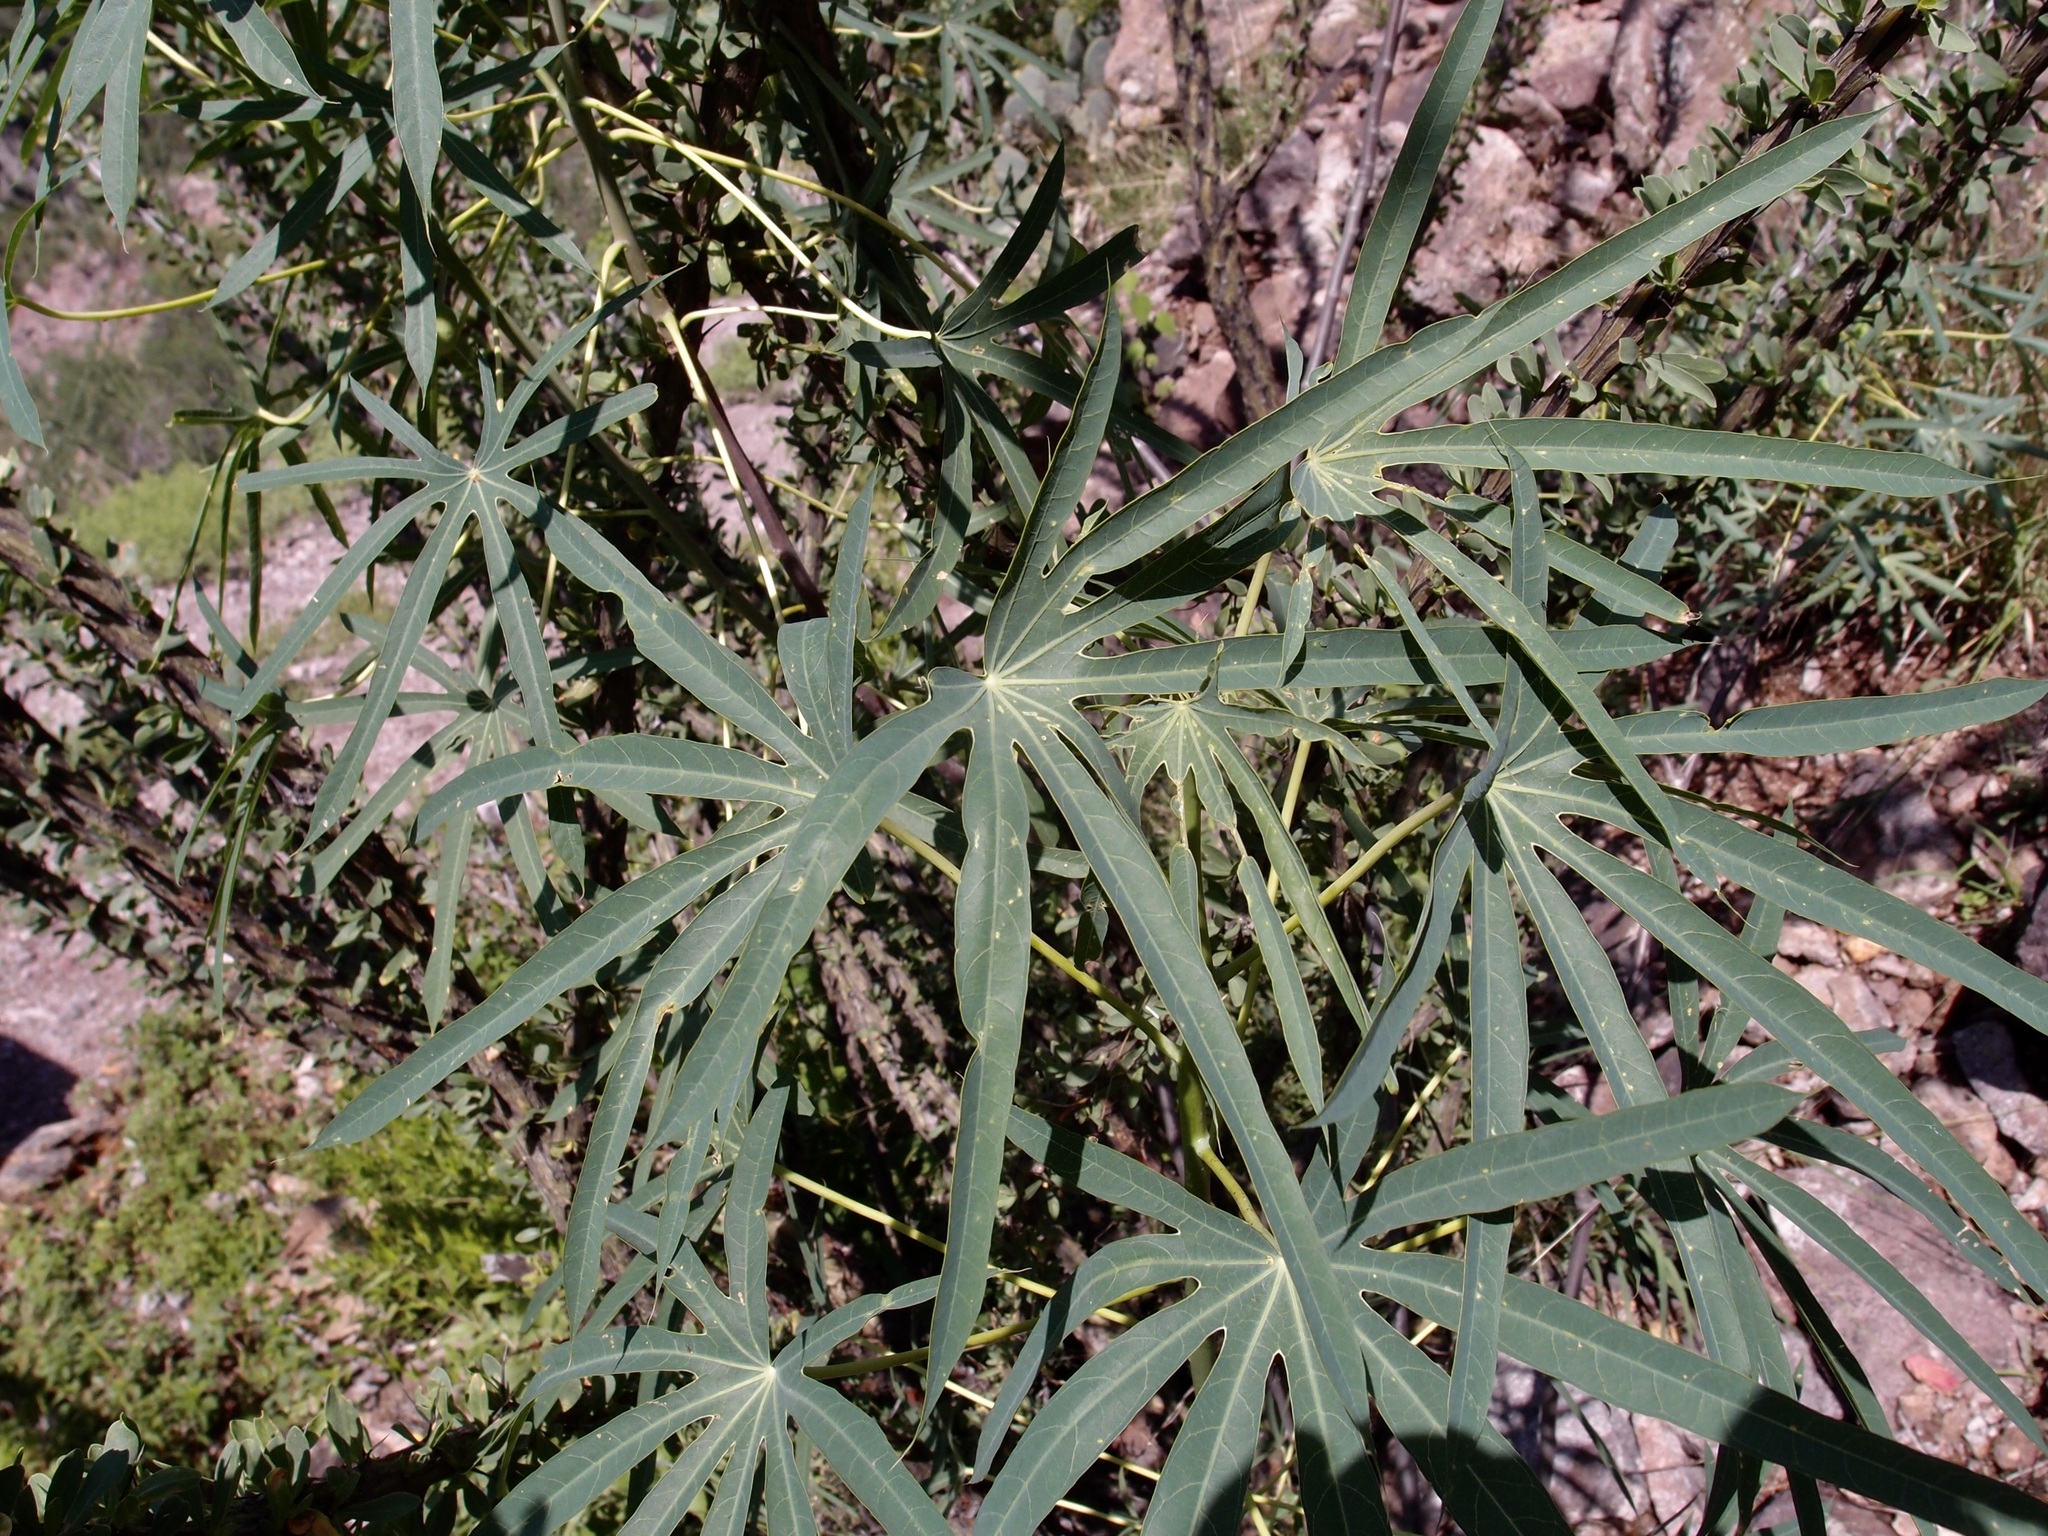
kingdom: Plantae
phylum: Tracheophyta
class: Magnoliopsida
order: Malpighiales
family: Euphorbiaceae
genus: Manihot
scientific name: Manihot rubricaulis
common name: Redstem cassava
